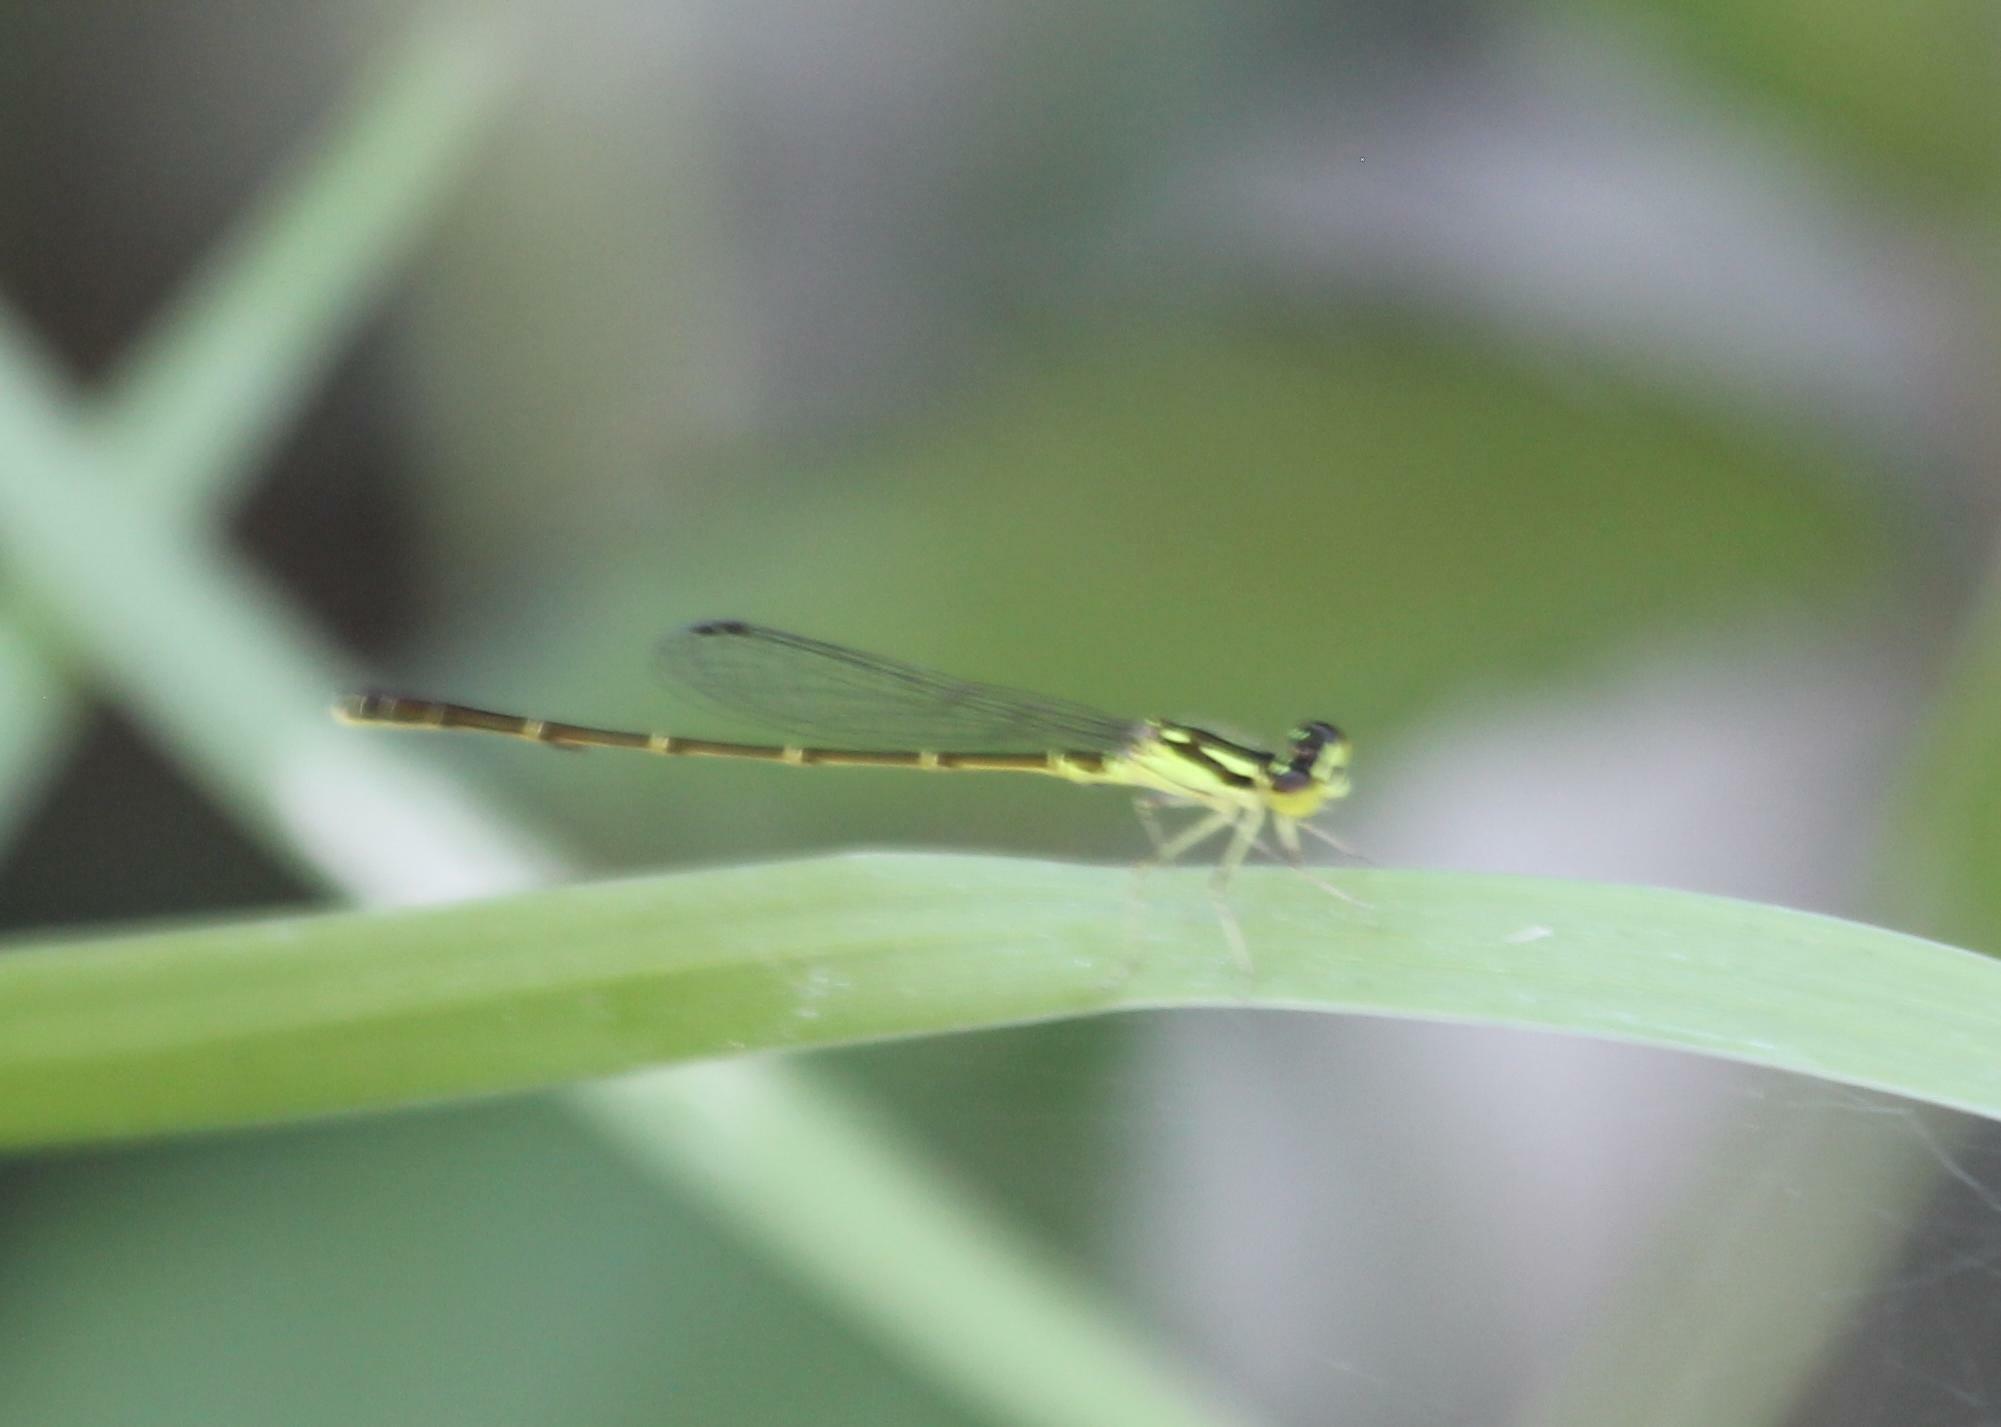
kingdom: Animalia
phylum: Arthropoda
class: Insecta
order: Odonata
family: Coenagrionidae
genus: Ischnura
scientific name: Ischnura posita
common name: Fragile forktail
